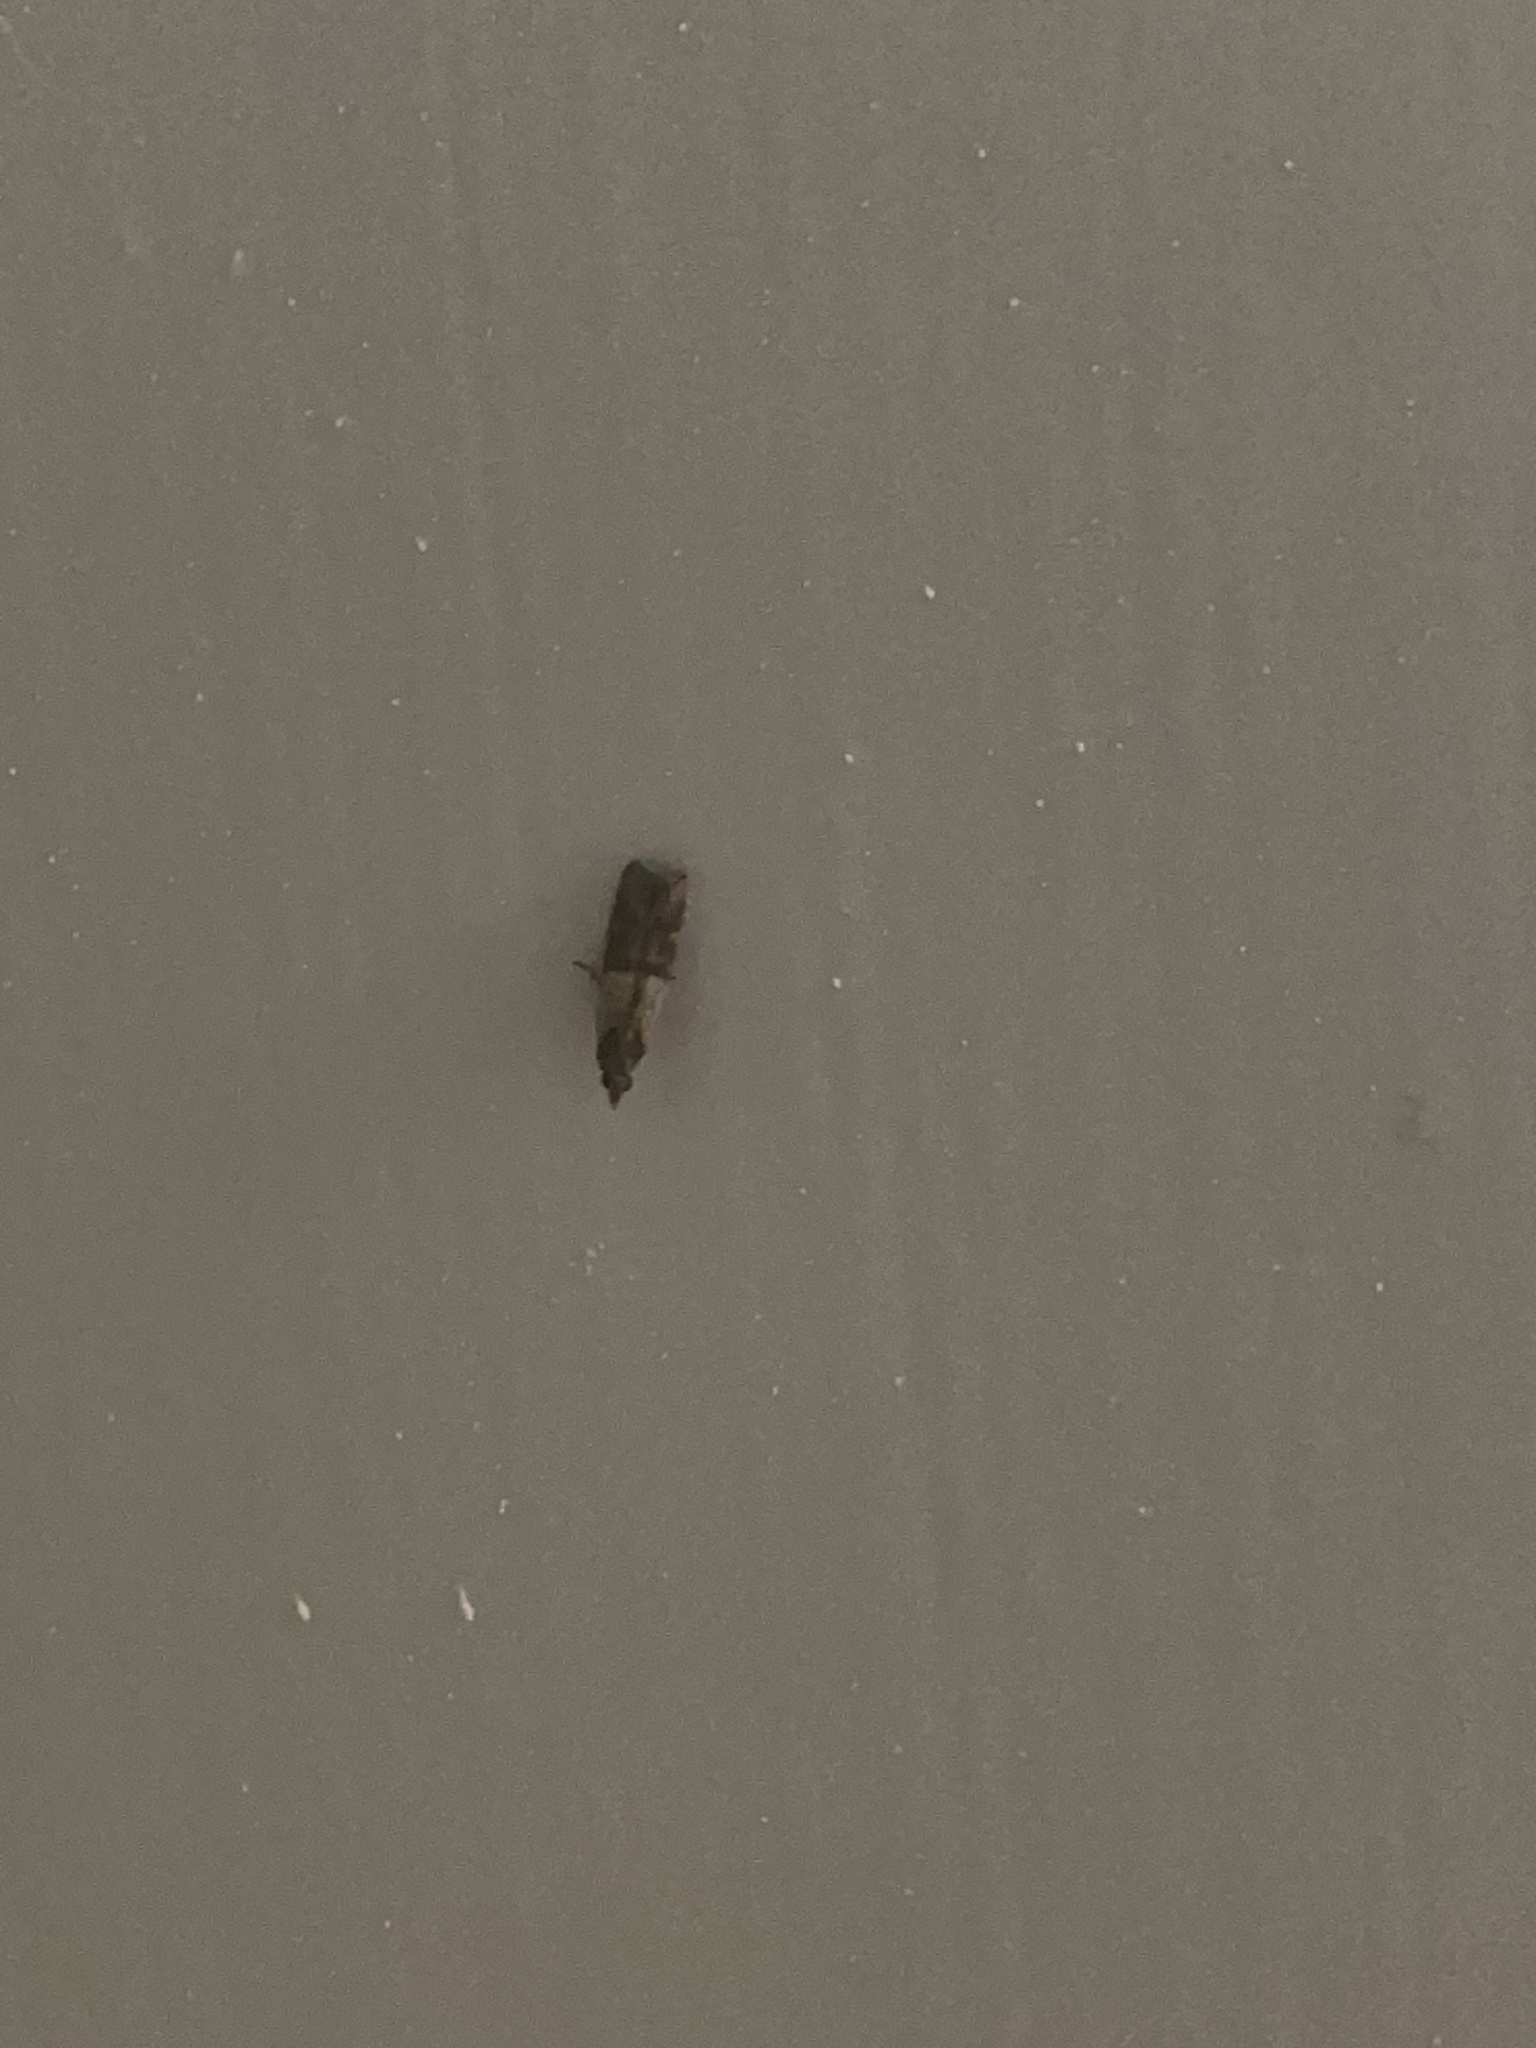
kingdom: Animalia
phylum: Arthropoda
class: Insecta
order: Lepidoptera
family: Pyralidae
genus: Plodia
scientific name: Plodia interpunctella
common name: Indian meal moth
